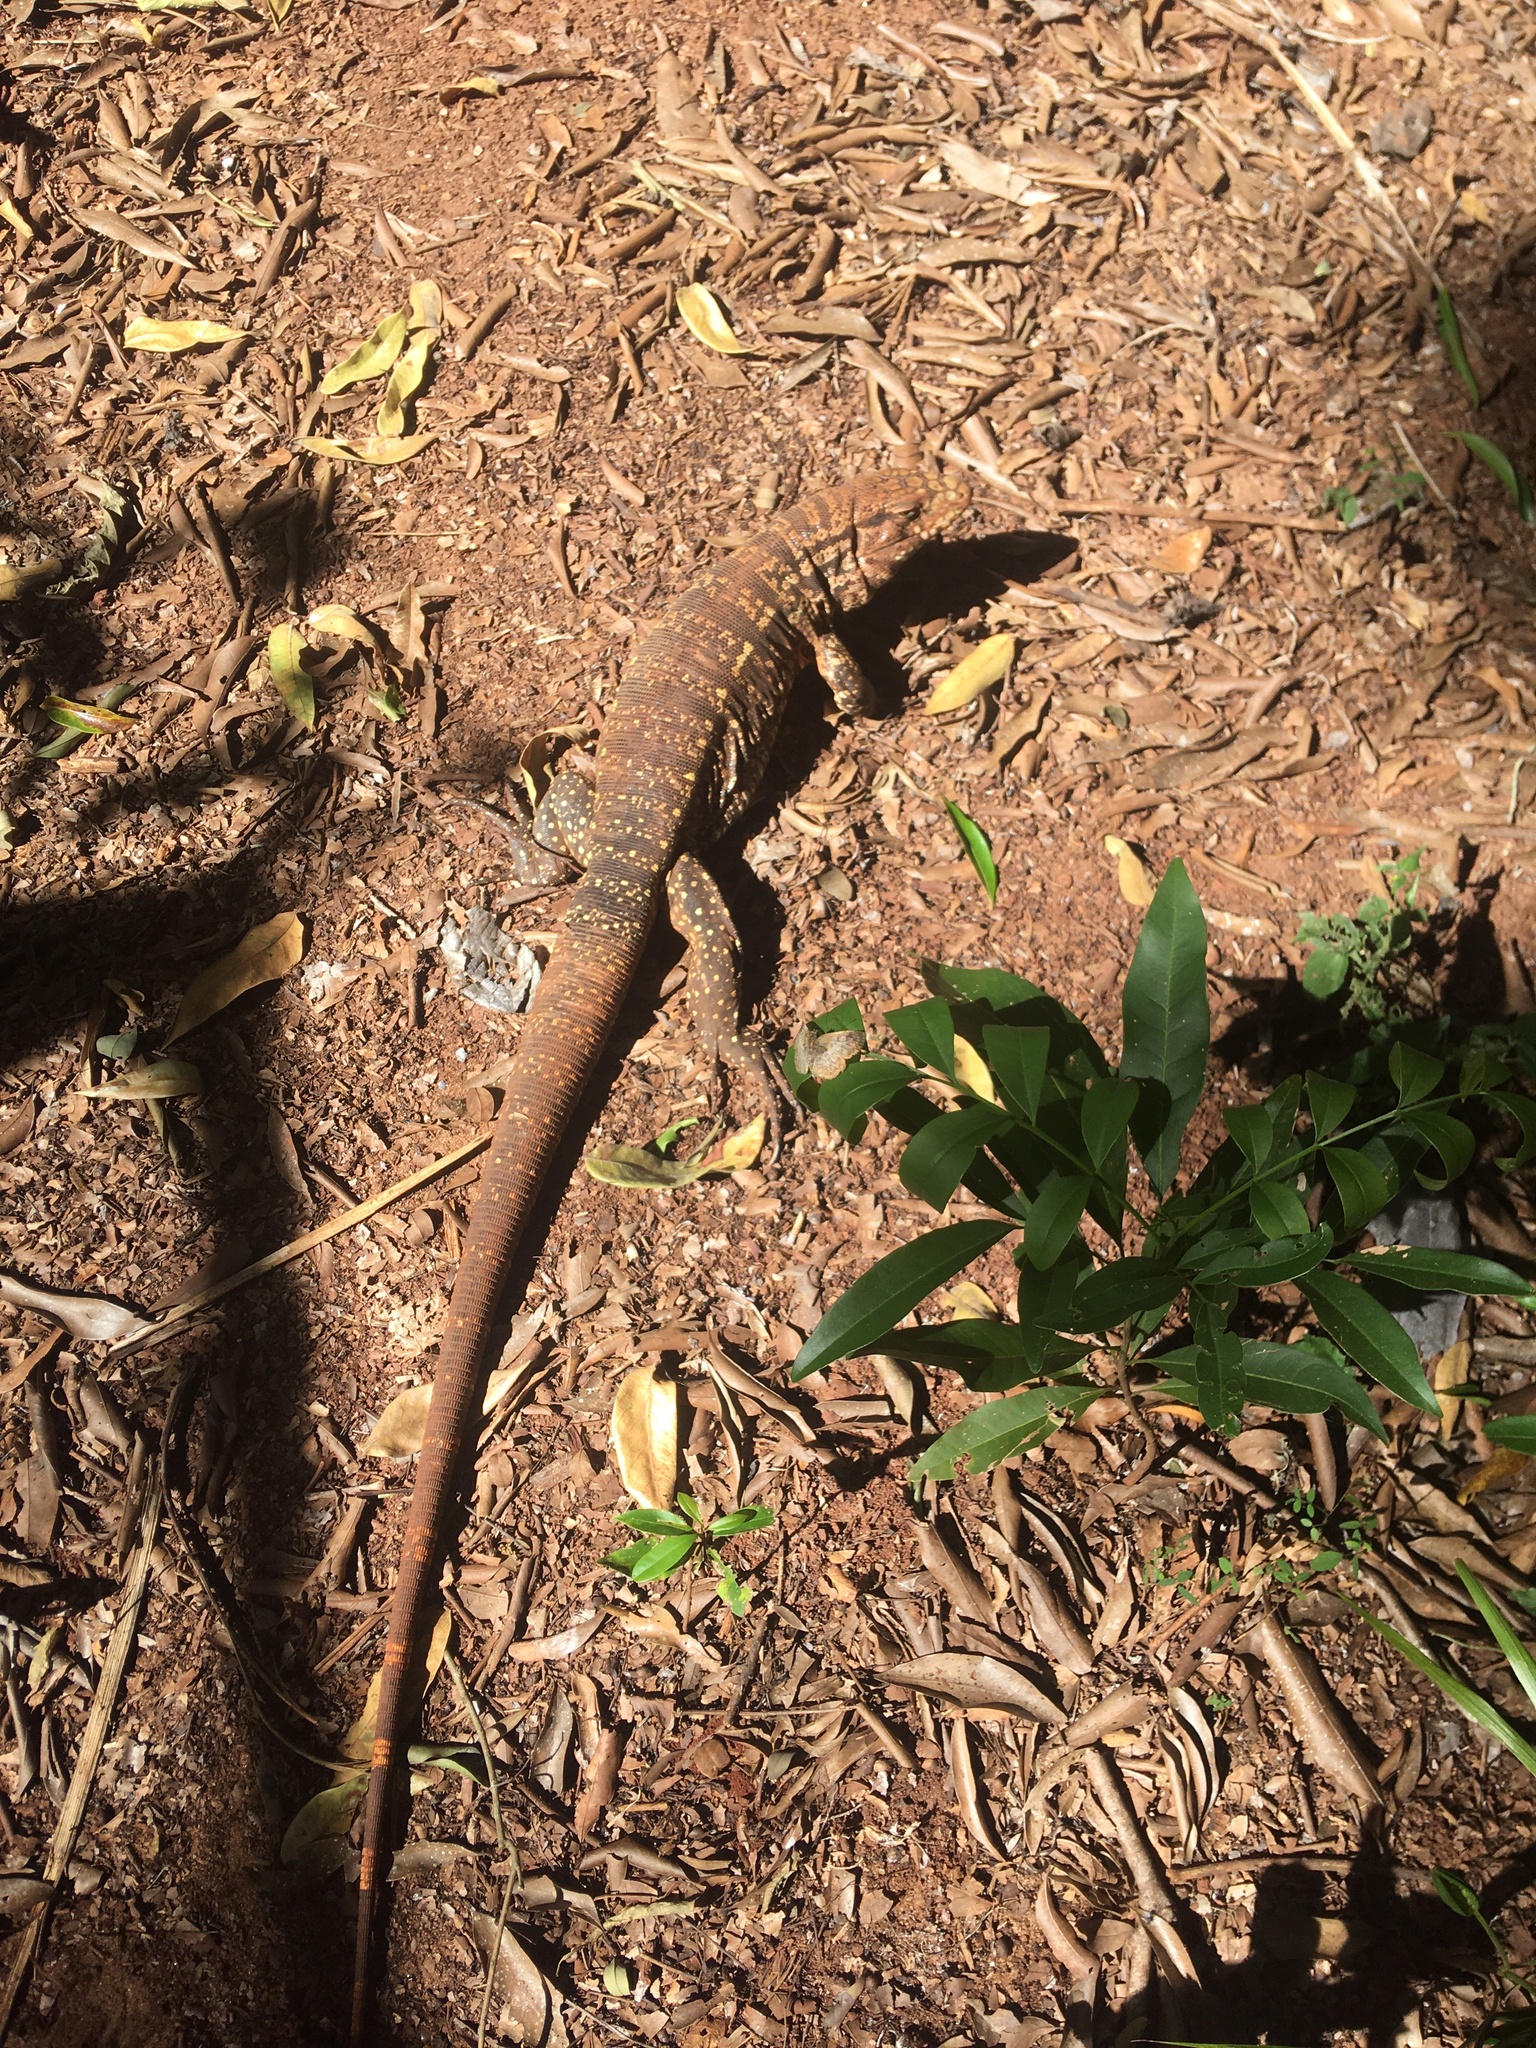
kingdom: Animalia
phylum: Chordata
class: Squamata
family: Teiidae
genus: Salvator
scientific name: Salvator merianae
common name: Argentine black and white tegu
